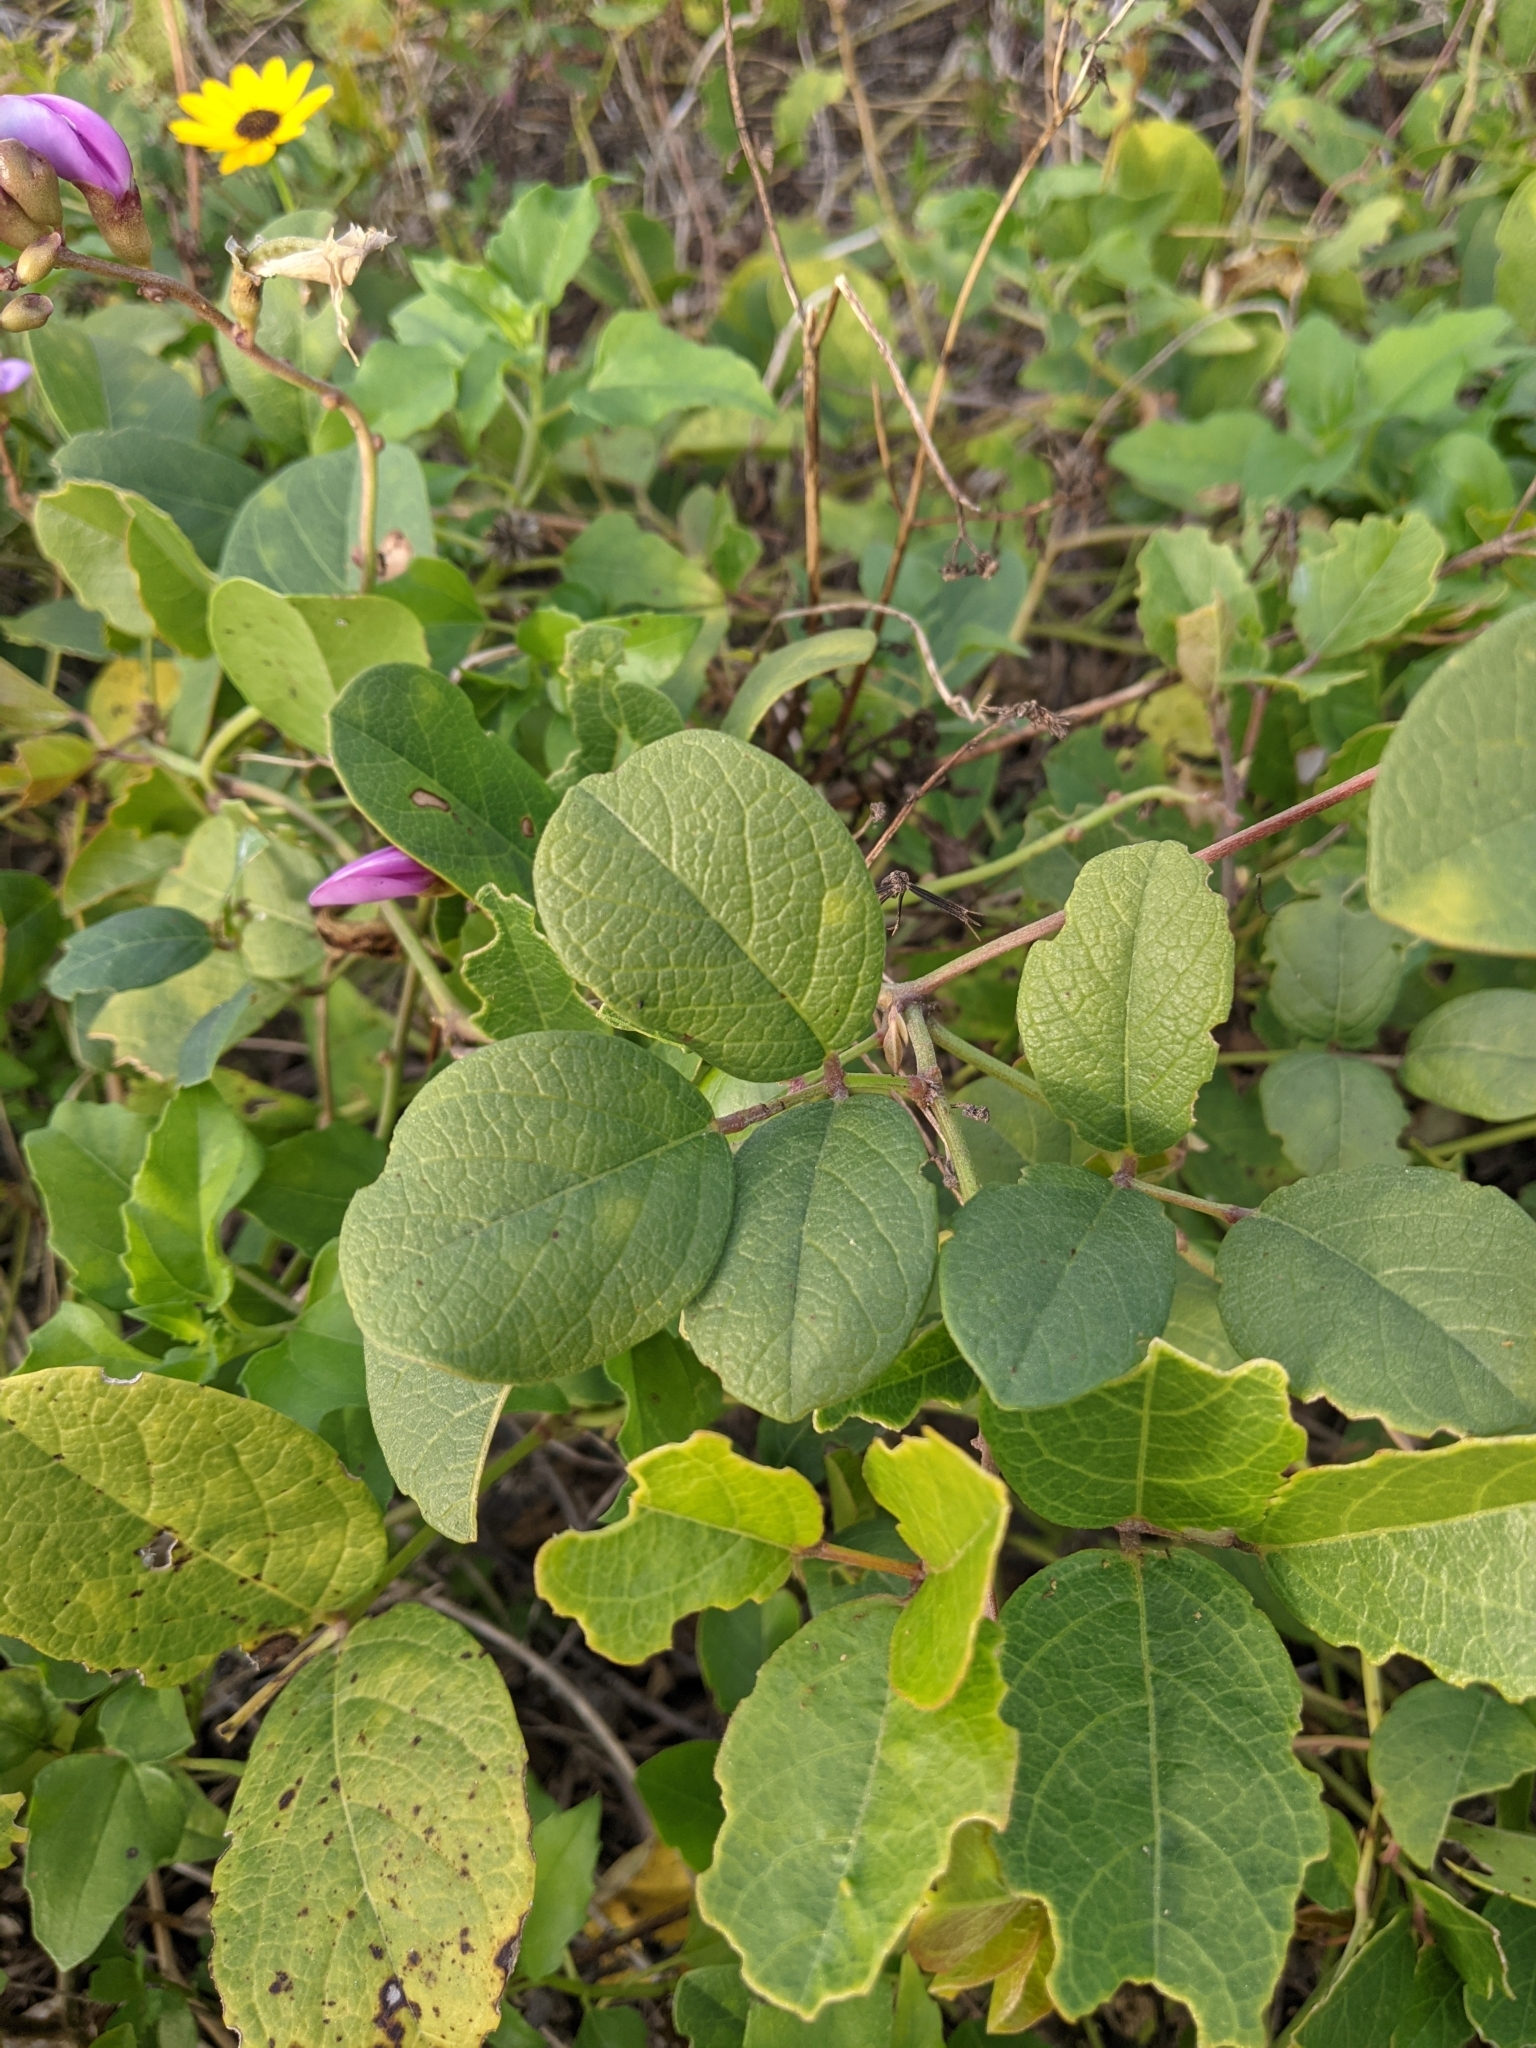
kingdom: Plantae
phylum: Tracheophyta
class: Magnoliopsida
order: Fabales
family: Fabaceae
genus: Canavalia
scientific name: Canavalia rosea
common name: Beach-bean
